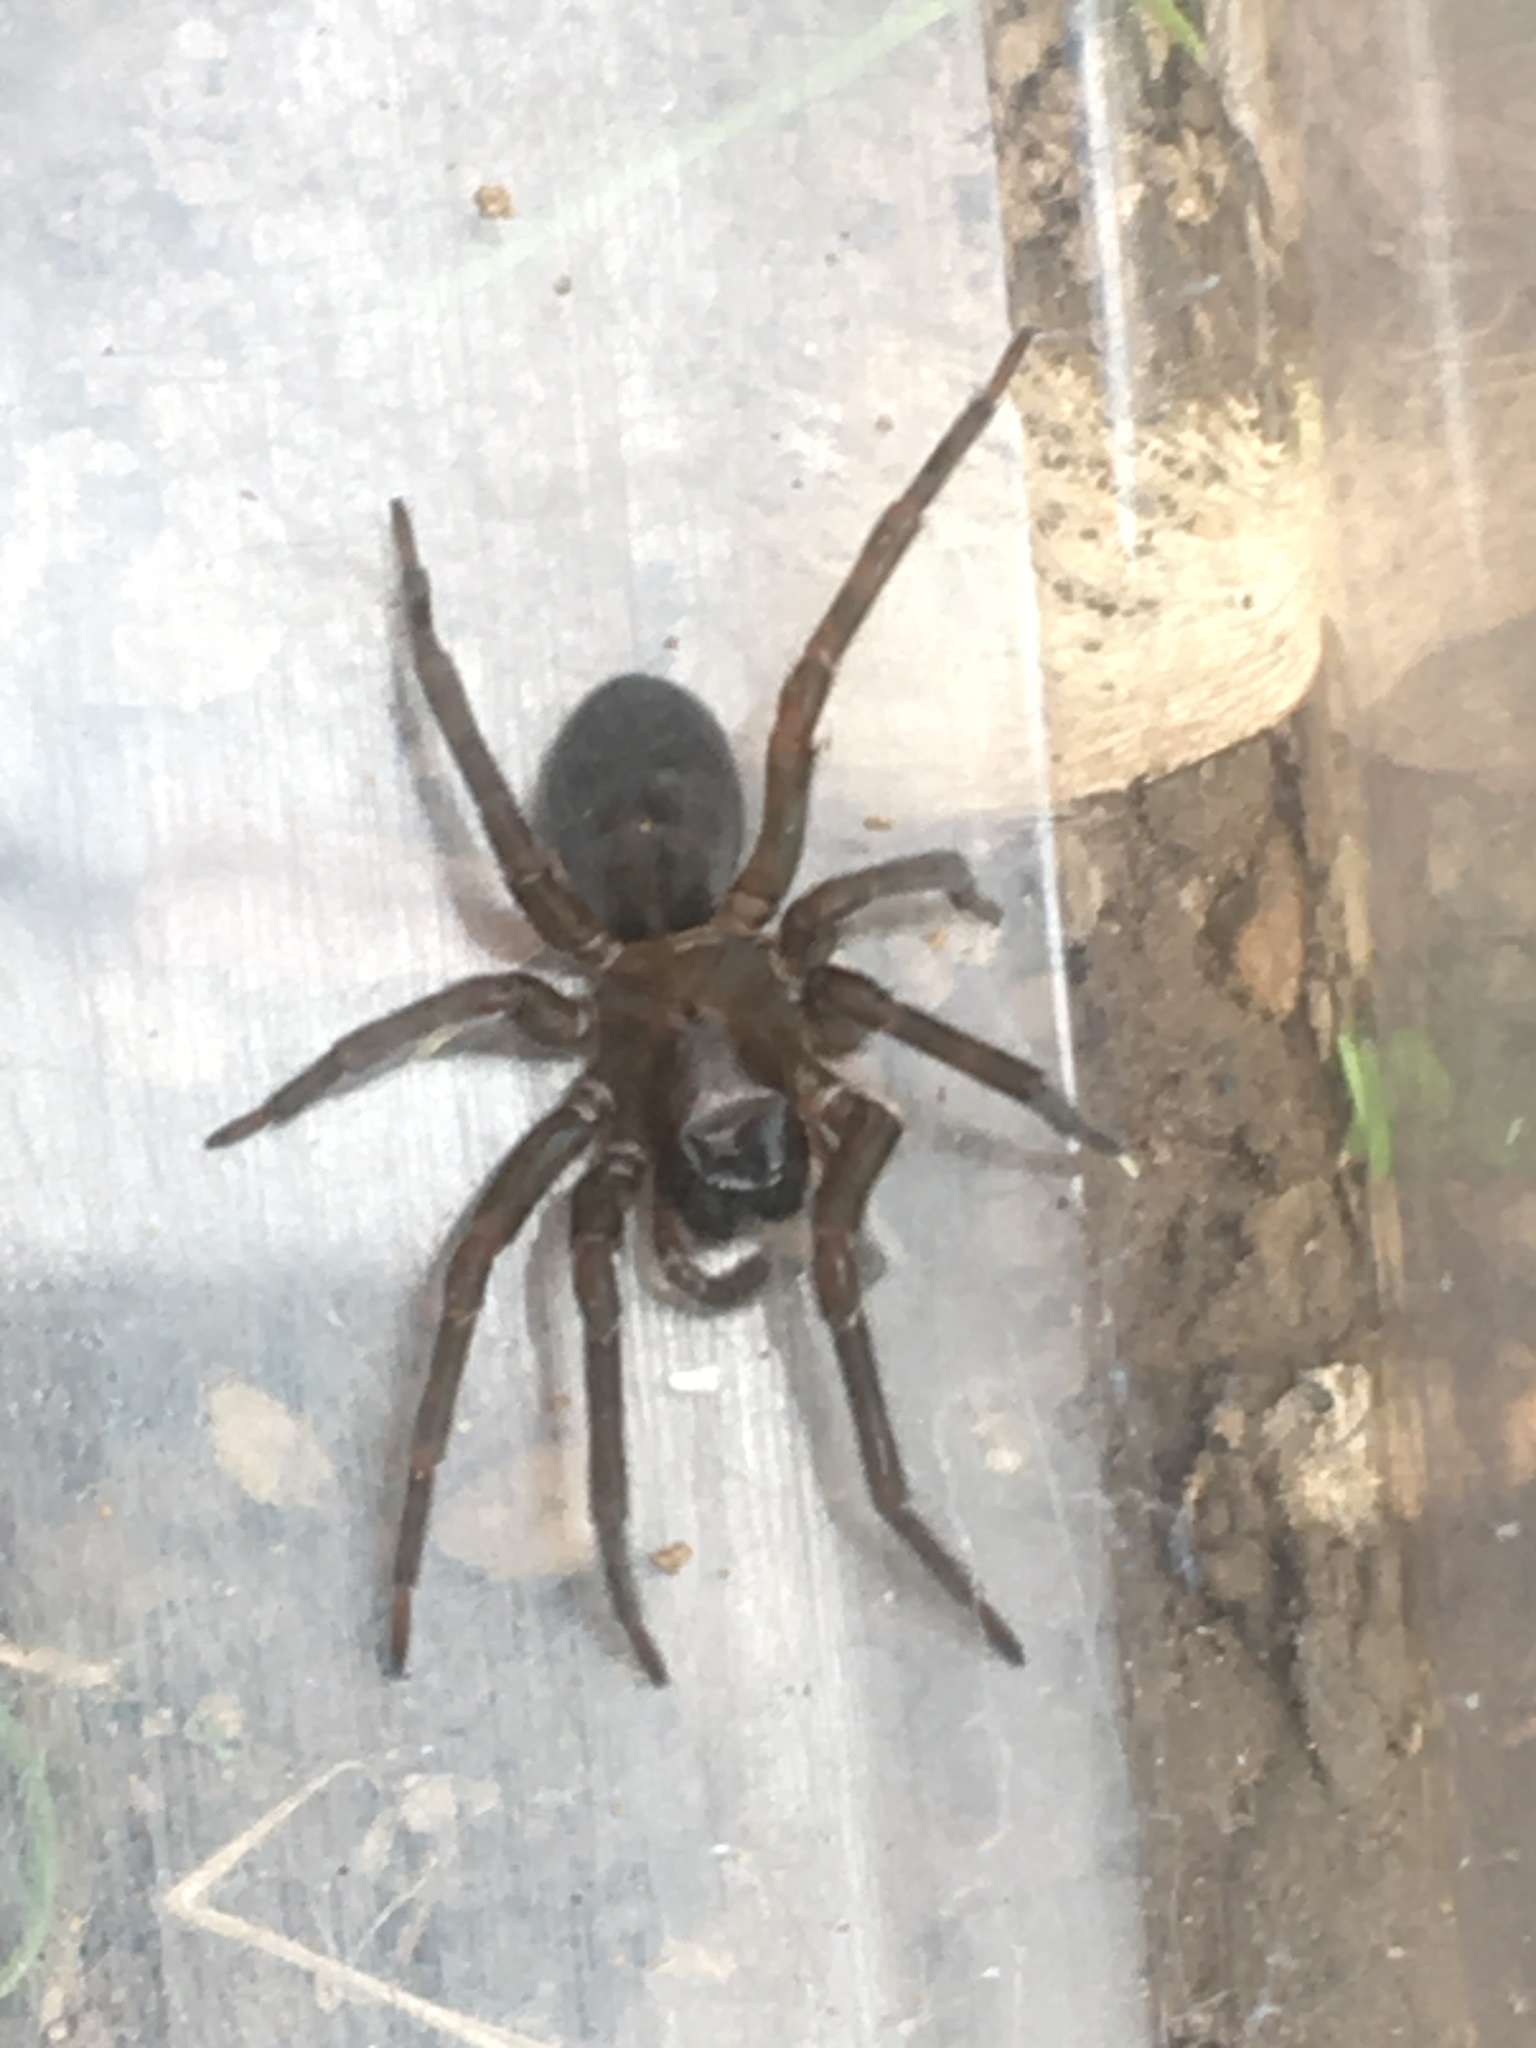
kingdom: Animalia
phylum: Arthropoda
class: Arachnida
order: Araneae
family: Amaurobiidae
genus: Amaurobius
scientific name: Amaurobius ferox
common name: Black laceweaver
